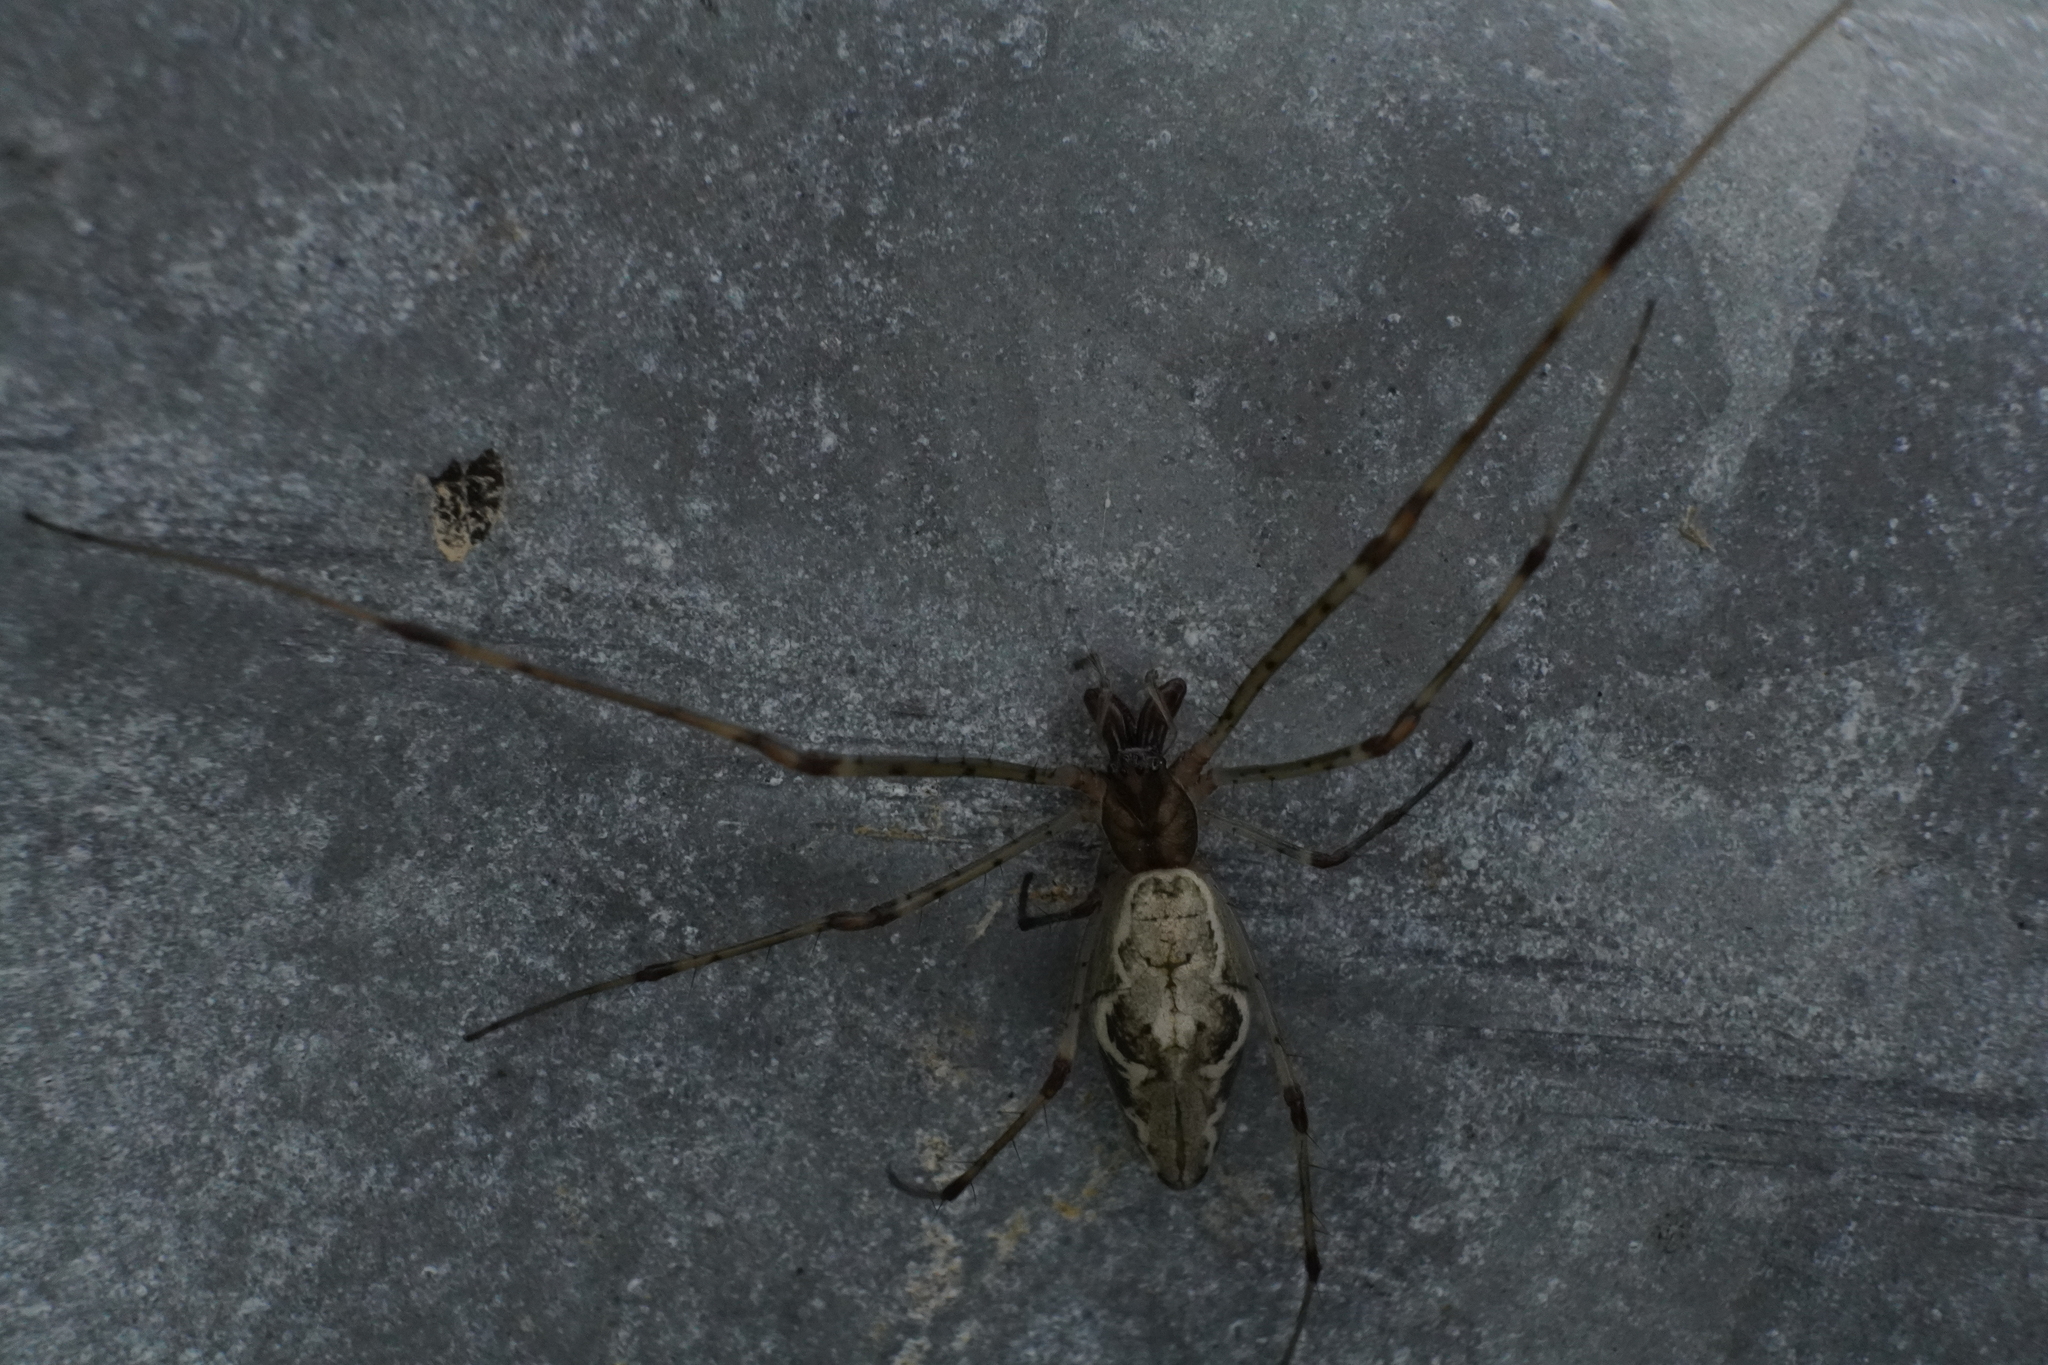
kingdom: Animalia
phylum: Arthropoda
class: Arachnida
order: Araneae
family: Tetragnathidae
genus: Tetragnatha
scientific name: Tetragnatha elongata
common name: Longjawed orb weavers
